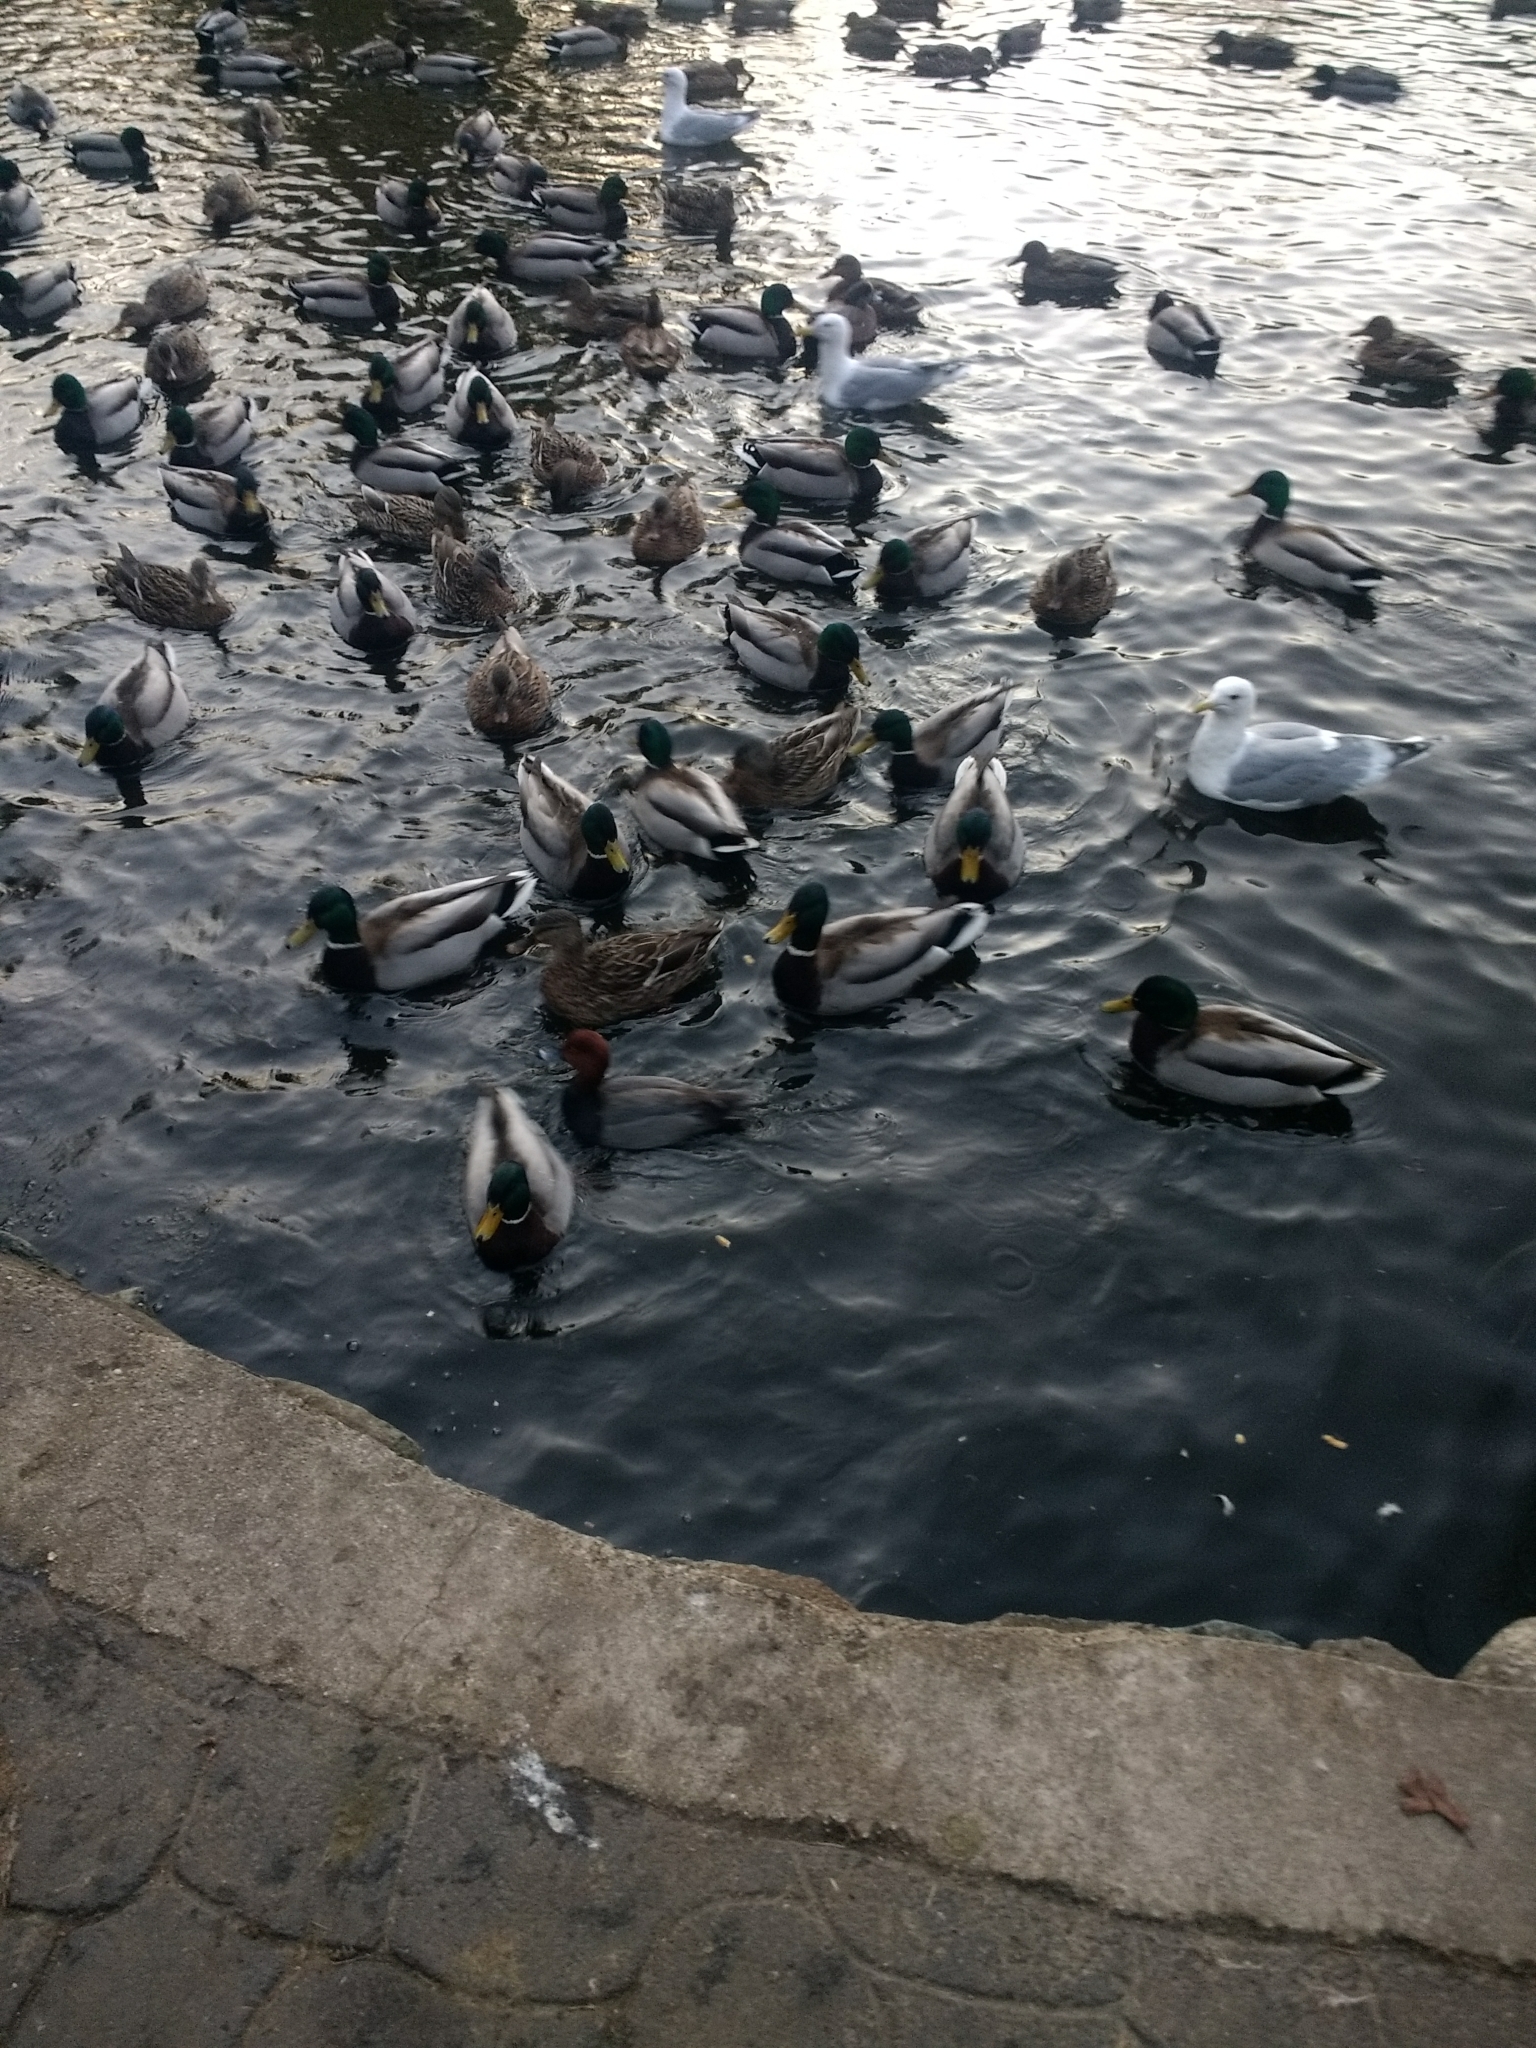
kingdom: Animalia
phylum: Chordata
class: Aves
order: Anseriformes
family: Anatidae
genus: Aythya
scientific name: Aythya americana
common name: Redhead
